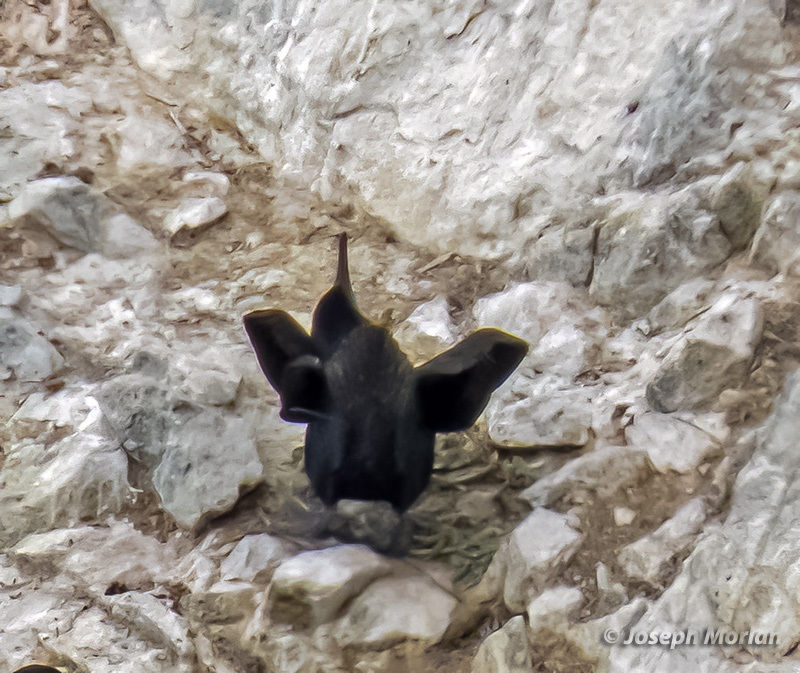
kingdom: Animalia
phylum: Chordata
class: Aves
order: Suliformes
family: Phalacrocoracidae
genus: Urile
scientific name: Urile penicillatus
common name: Brandt's cormorant
